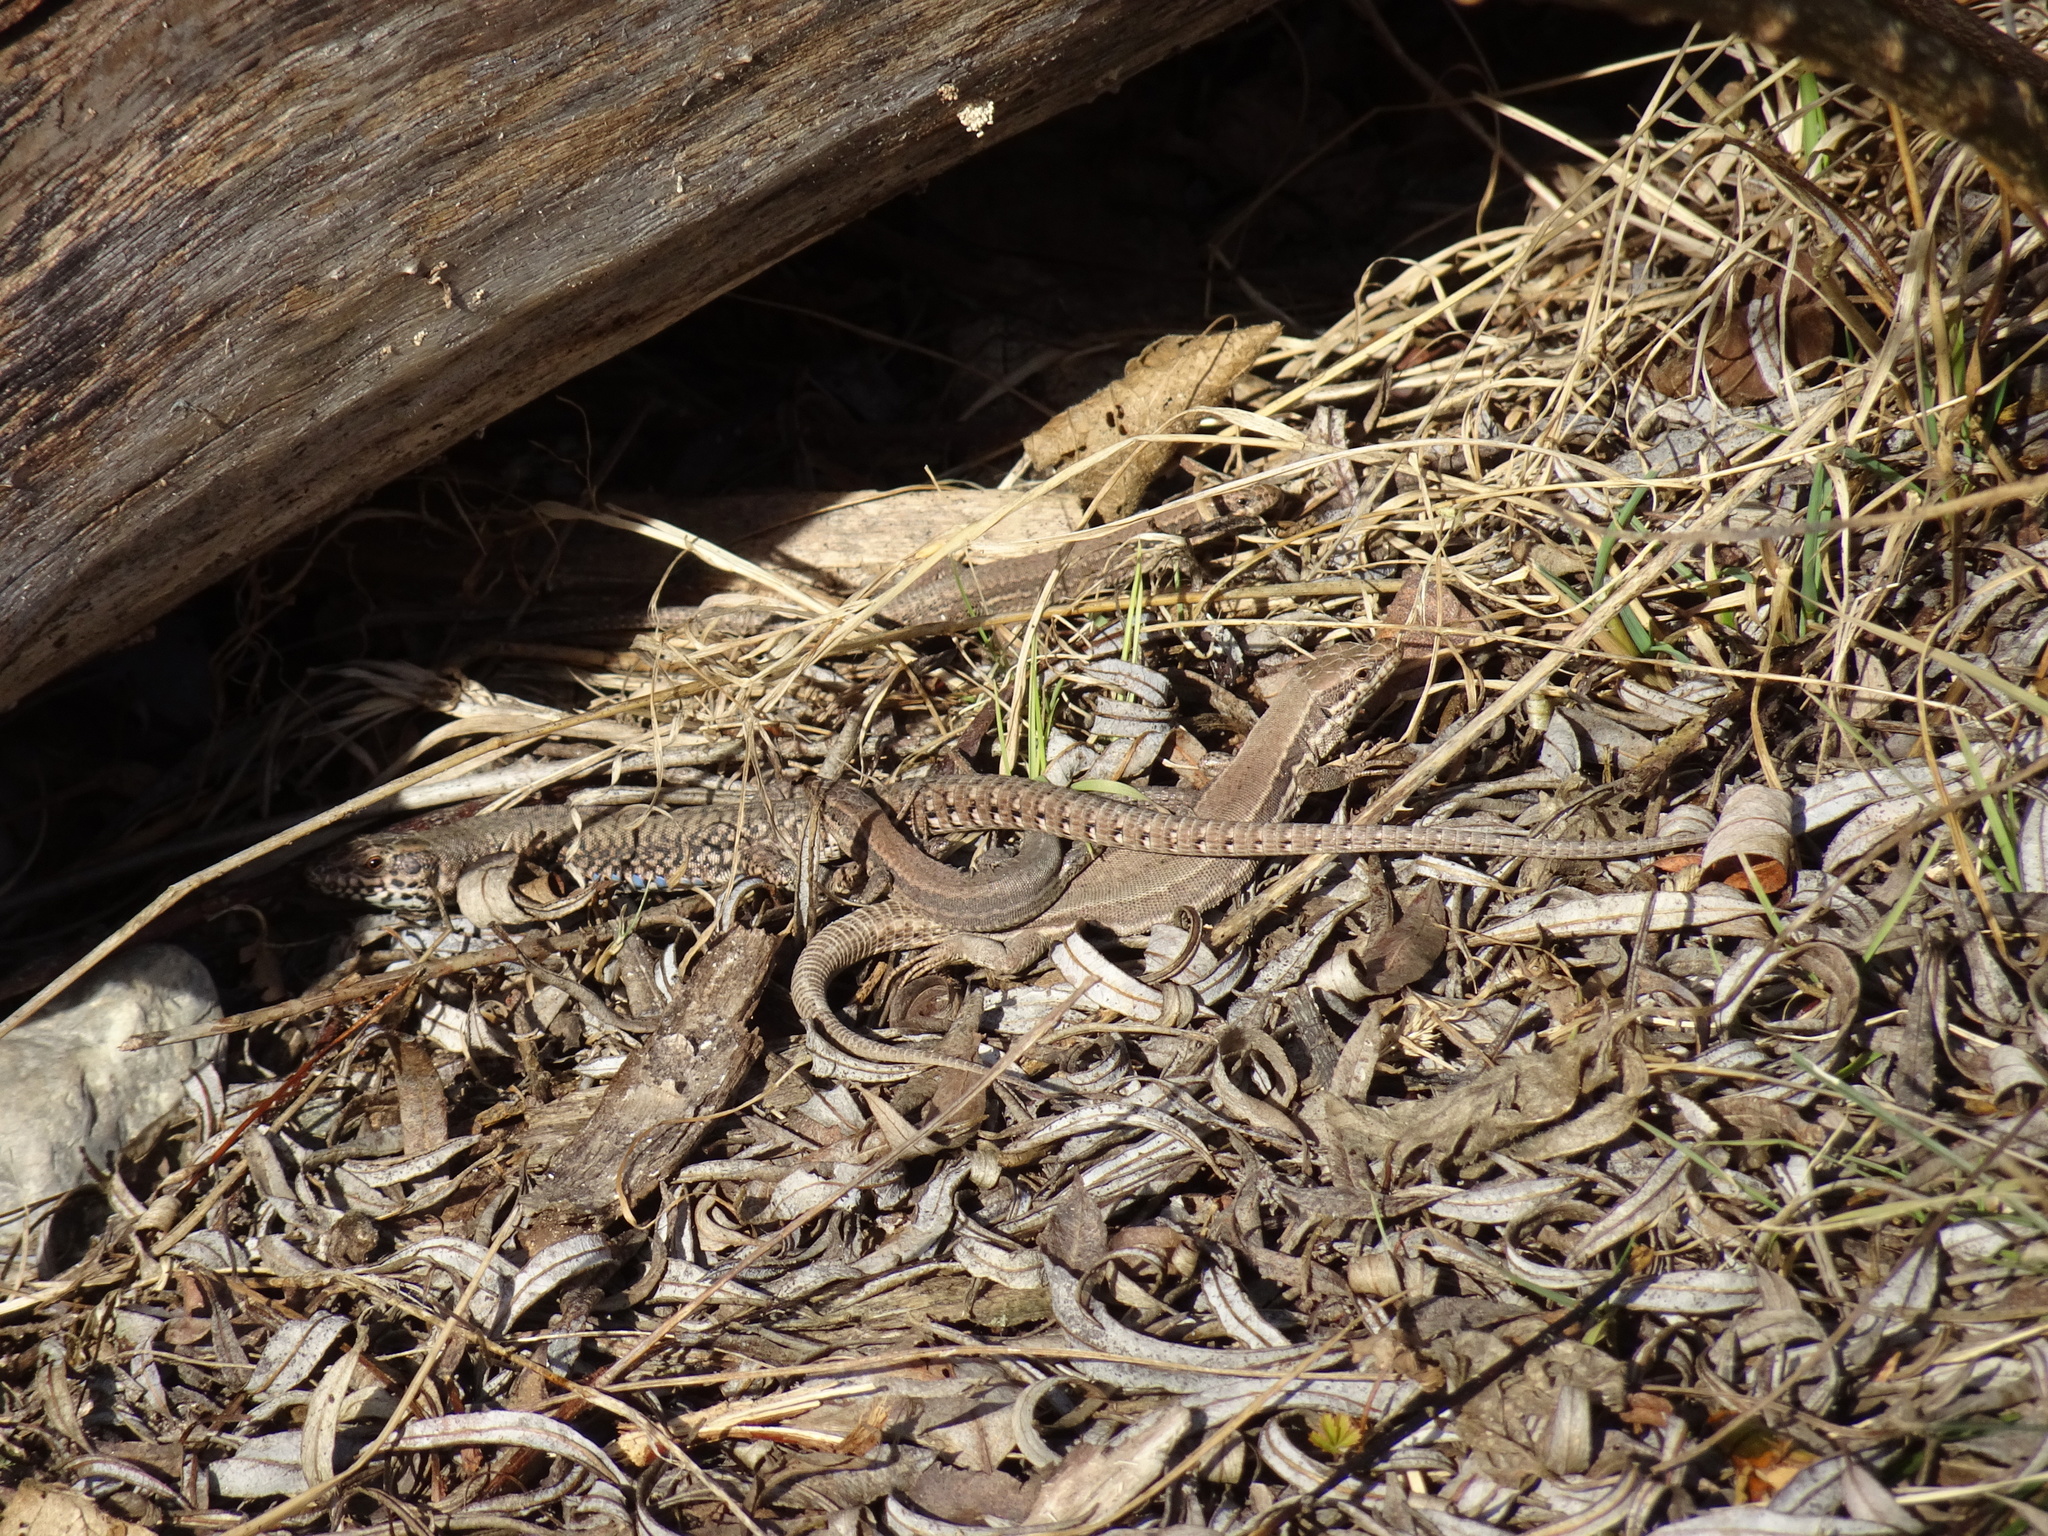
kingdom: Animalia
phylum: Chordata
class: Squamata
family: Lacertidae
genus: Podarcis
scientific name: Podarcis muralis
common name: Common wall lizard
